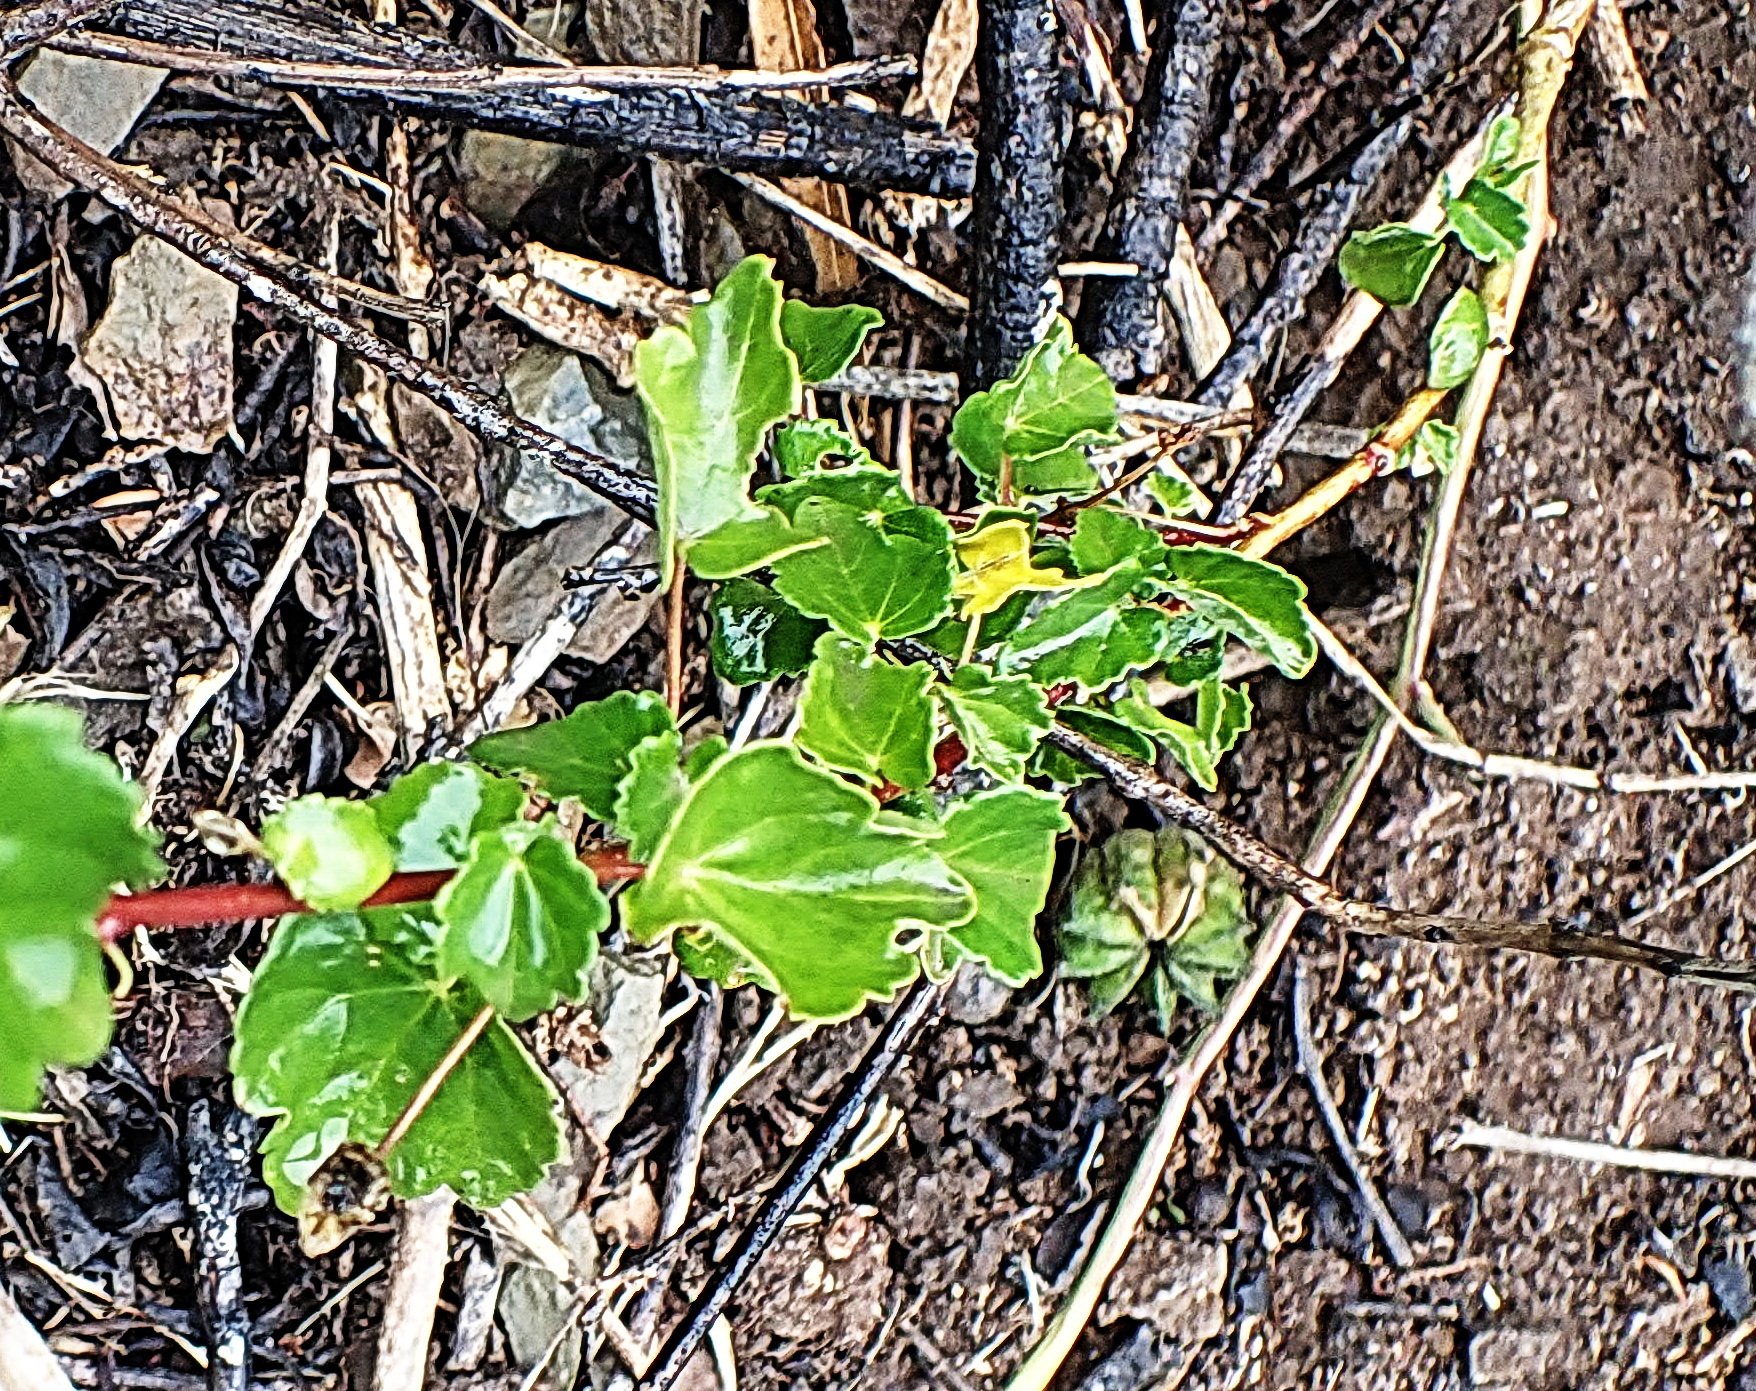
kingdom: Plantae
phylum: Tracheophyta
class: Magnoliopsida
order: Malvales
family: Malvaceae
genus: Abutilon
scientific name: Abutilon sonneratianum
